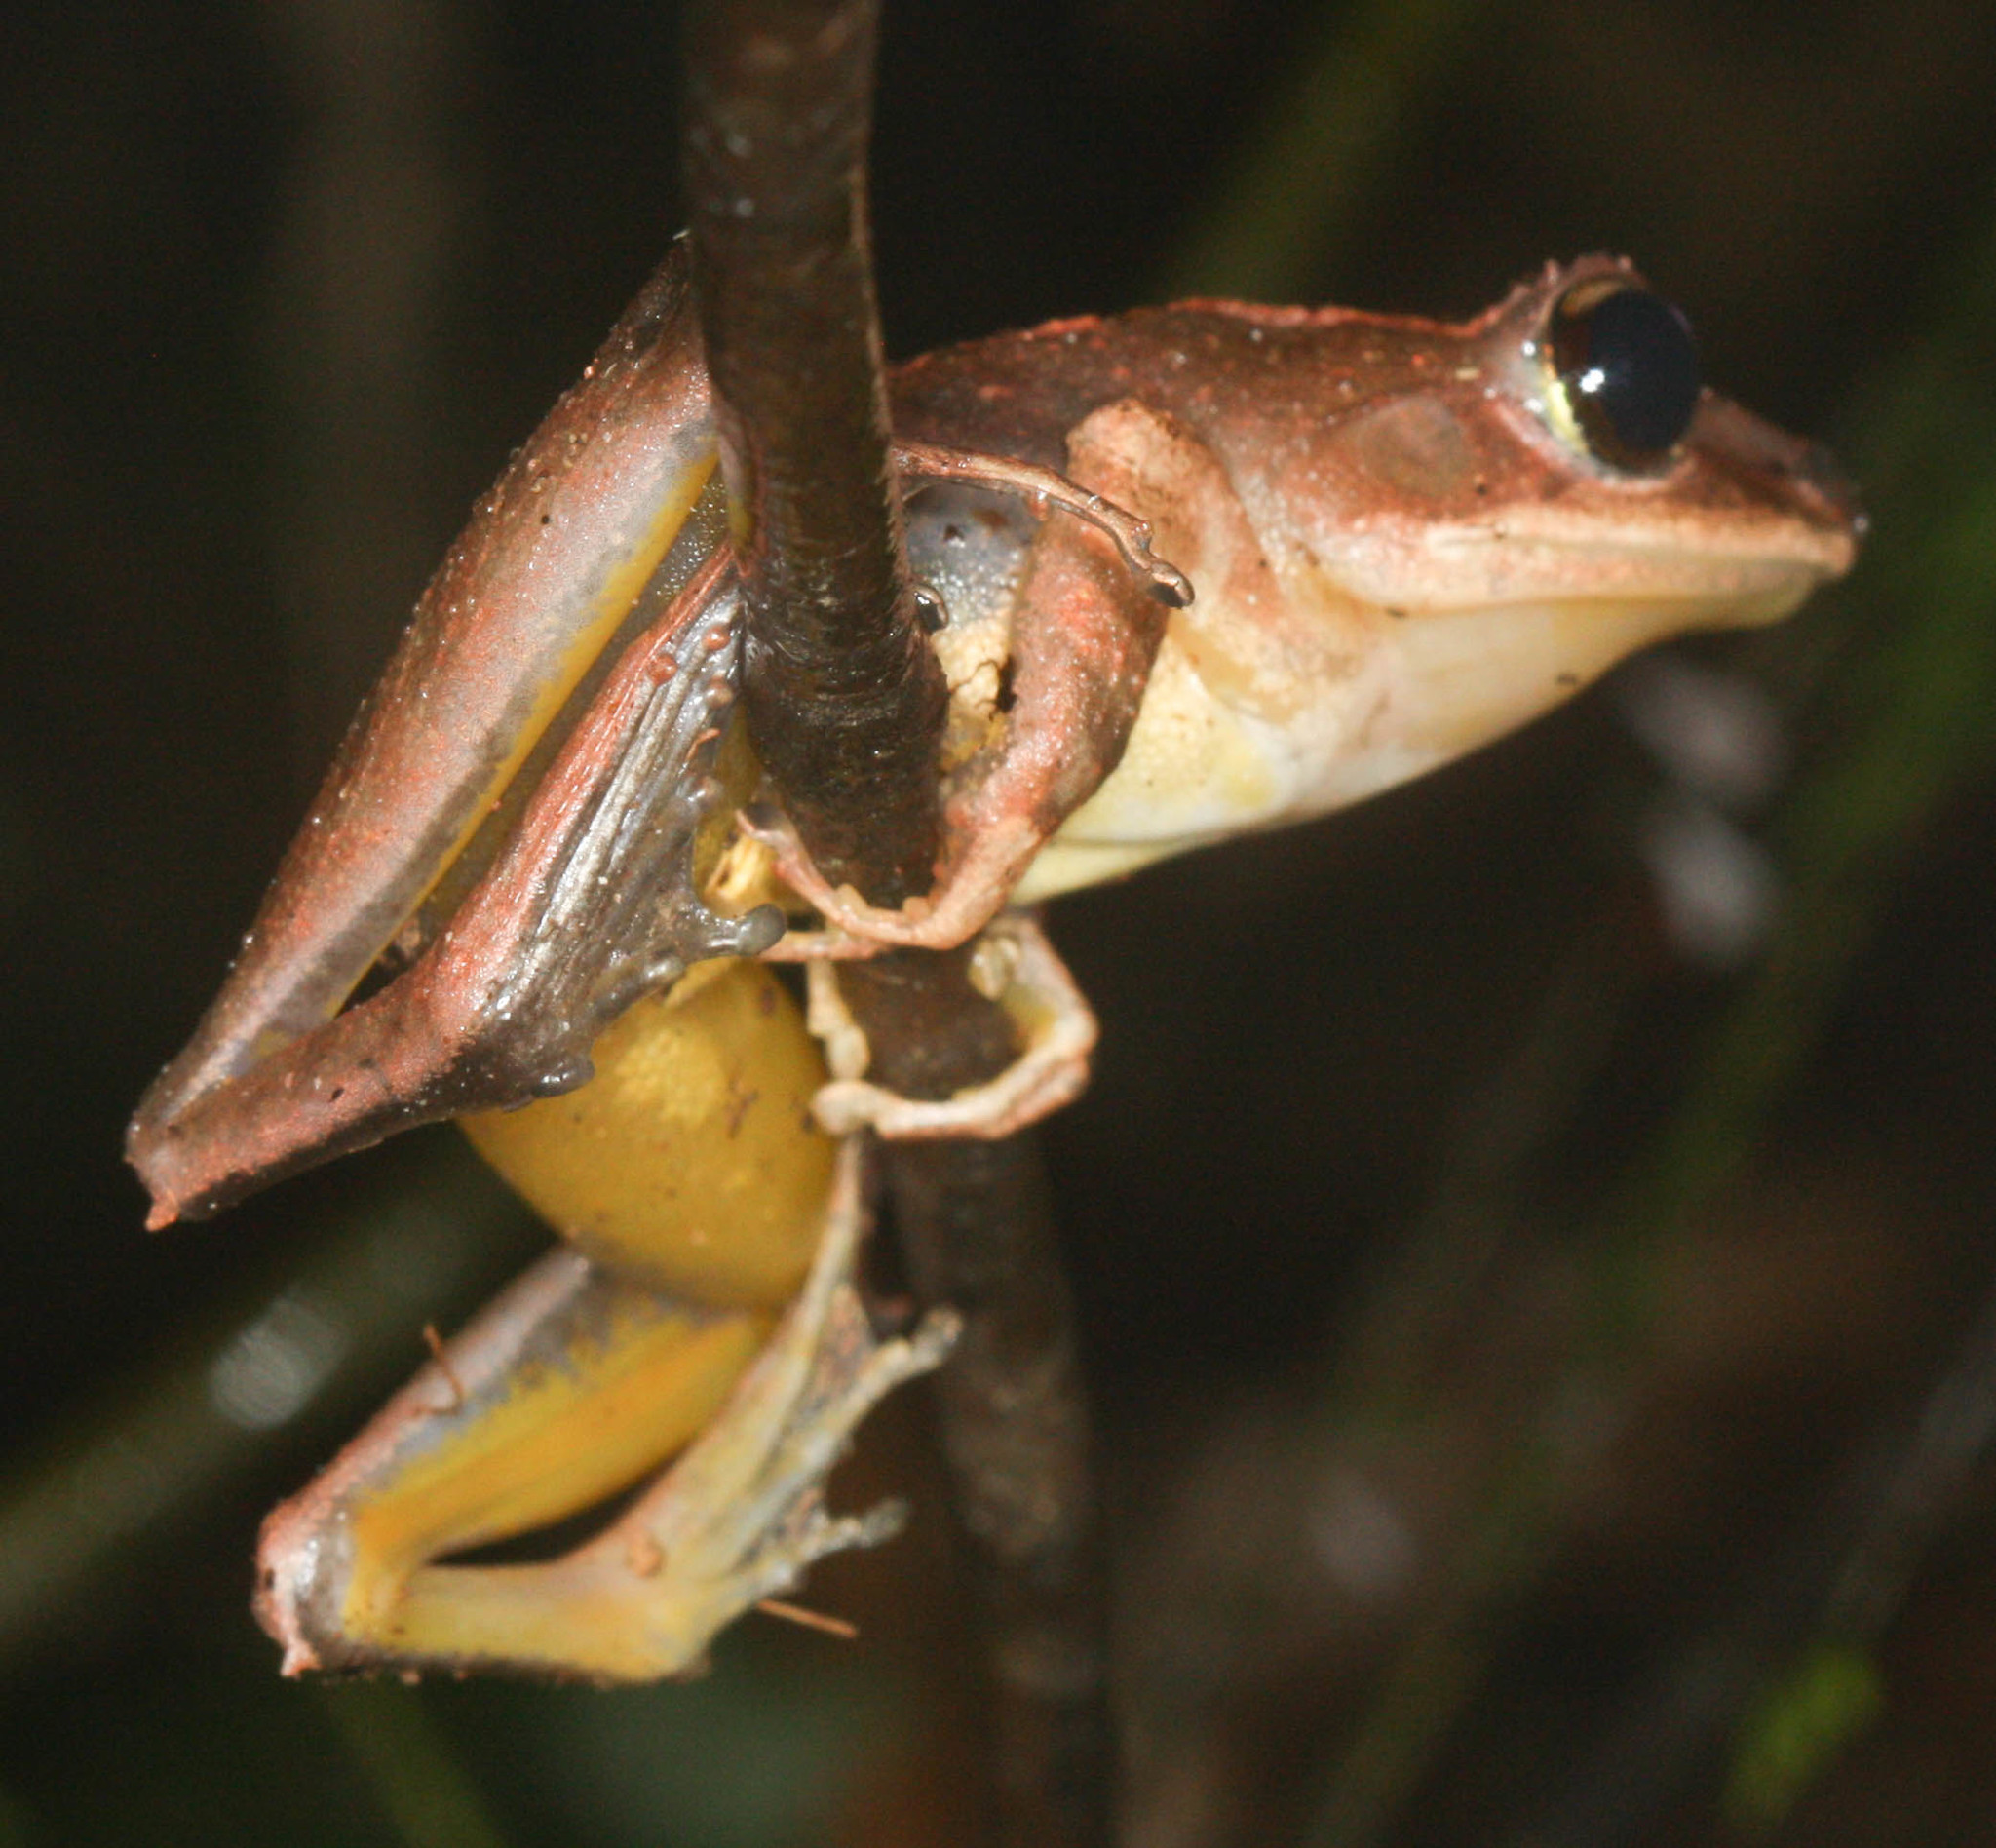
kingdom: Animalia
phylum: Chordata
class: Amphibia
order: Anura
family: Mantellidae
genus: Gephyromantis
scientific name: Gephyromantis luteus
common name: White madagascar frog
